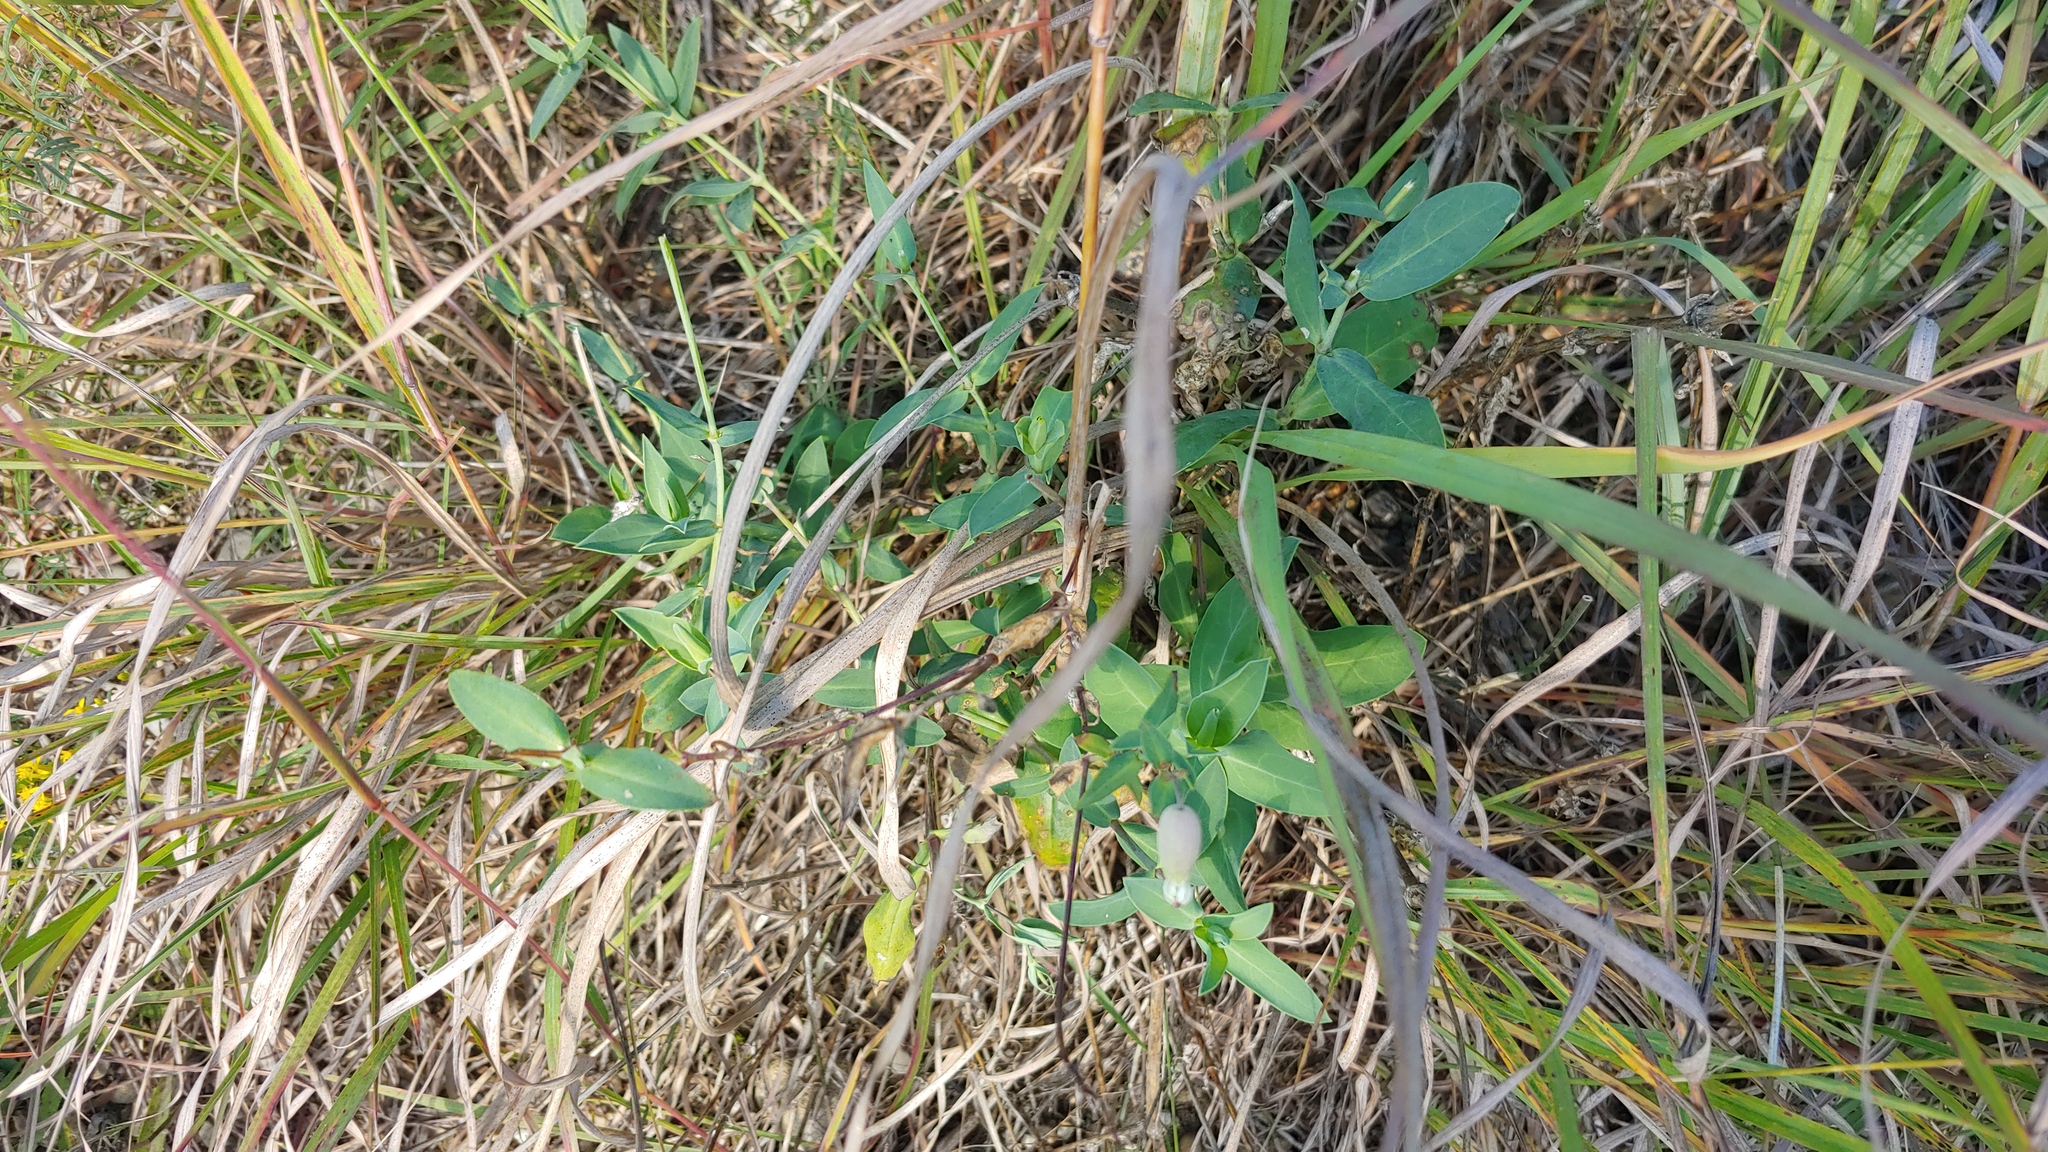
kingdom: Plantae
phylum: Tracheophyta
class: Magnoliopsida
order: Caryophyllales
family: Caryophyllaceae
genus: Silene
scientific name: Silene vulgaris
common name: Bladder campion
